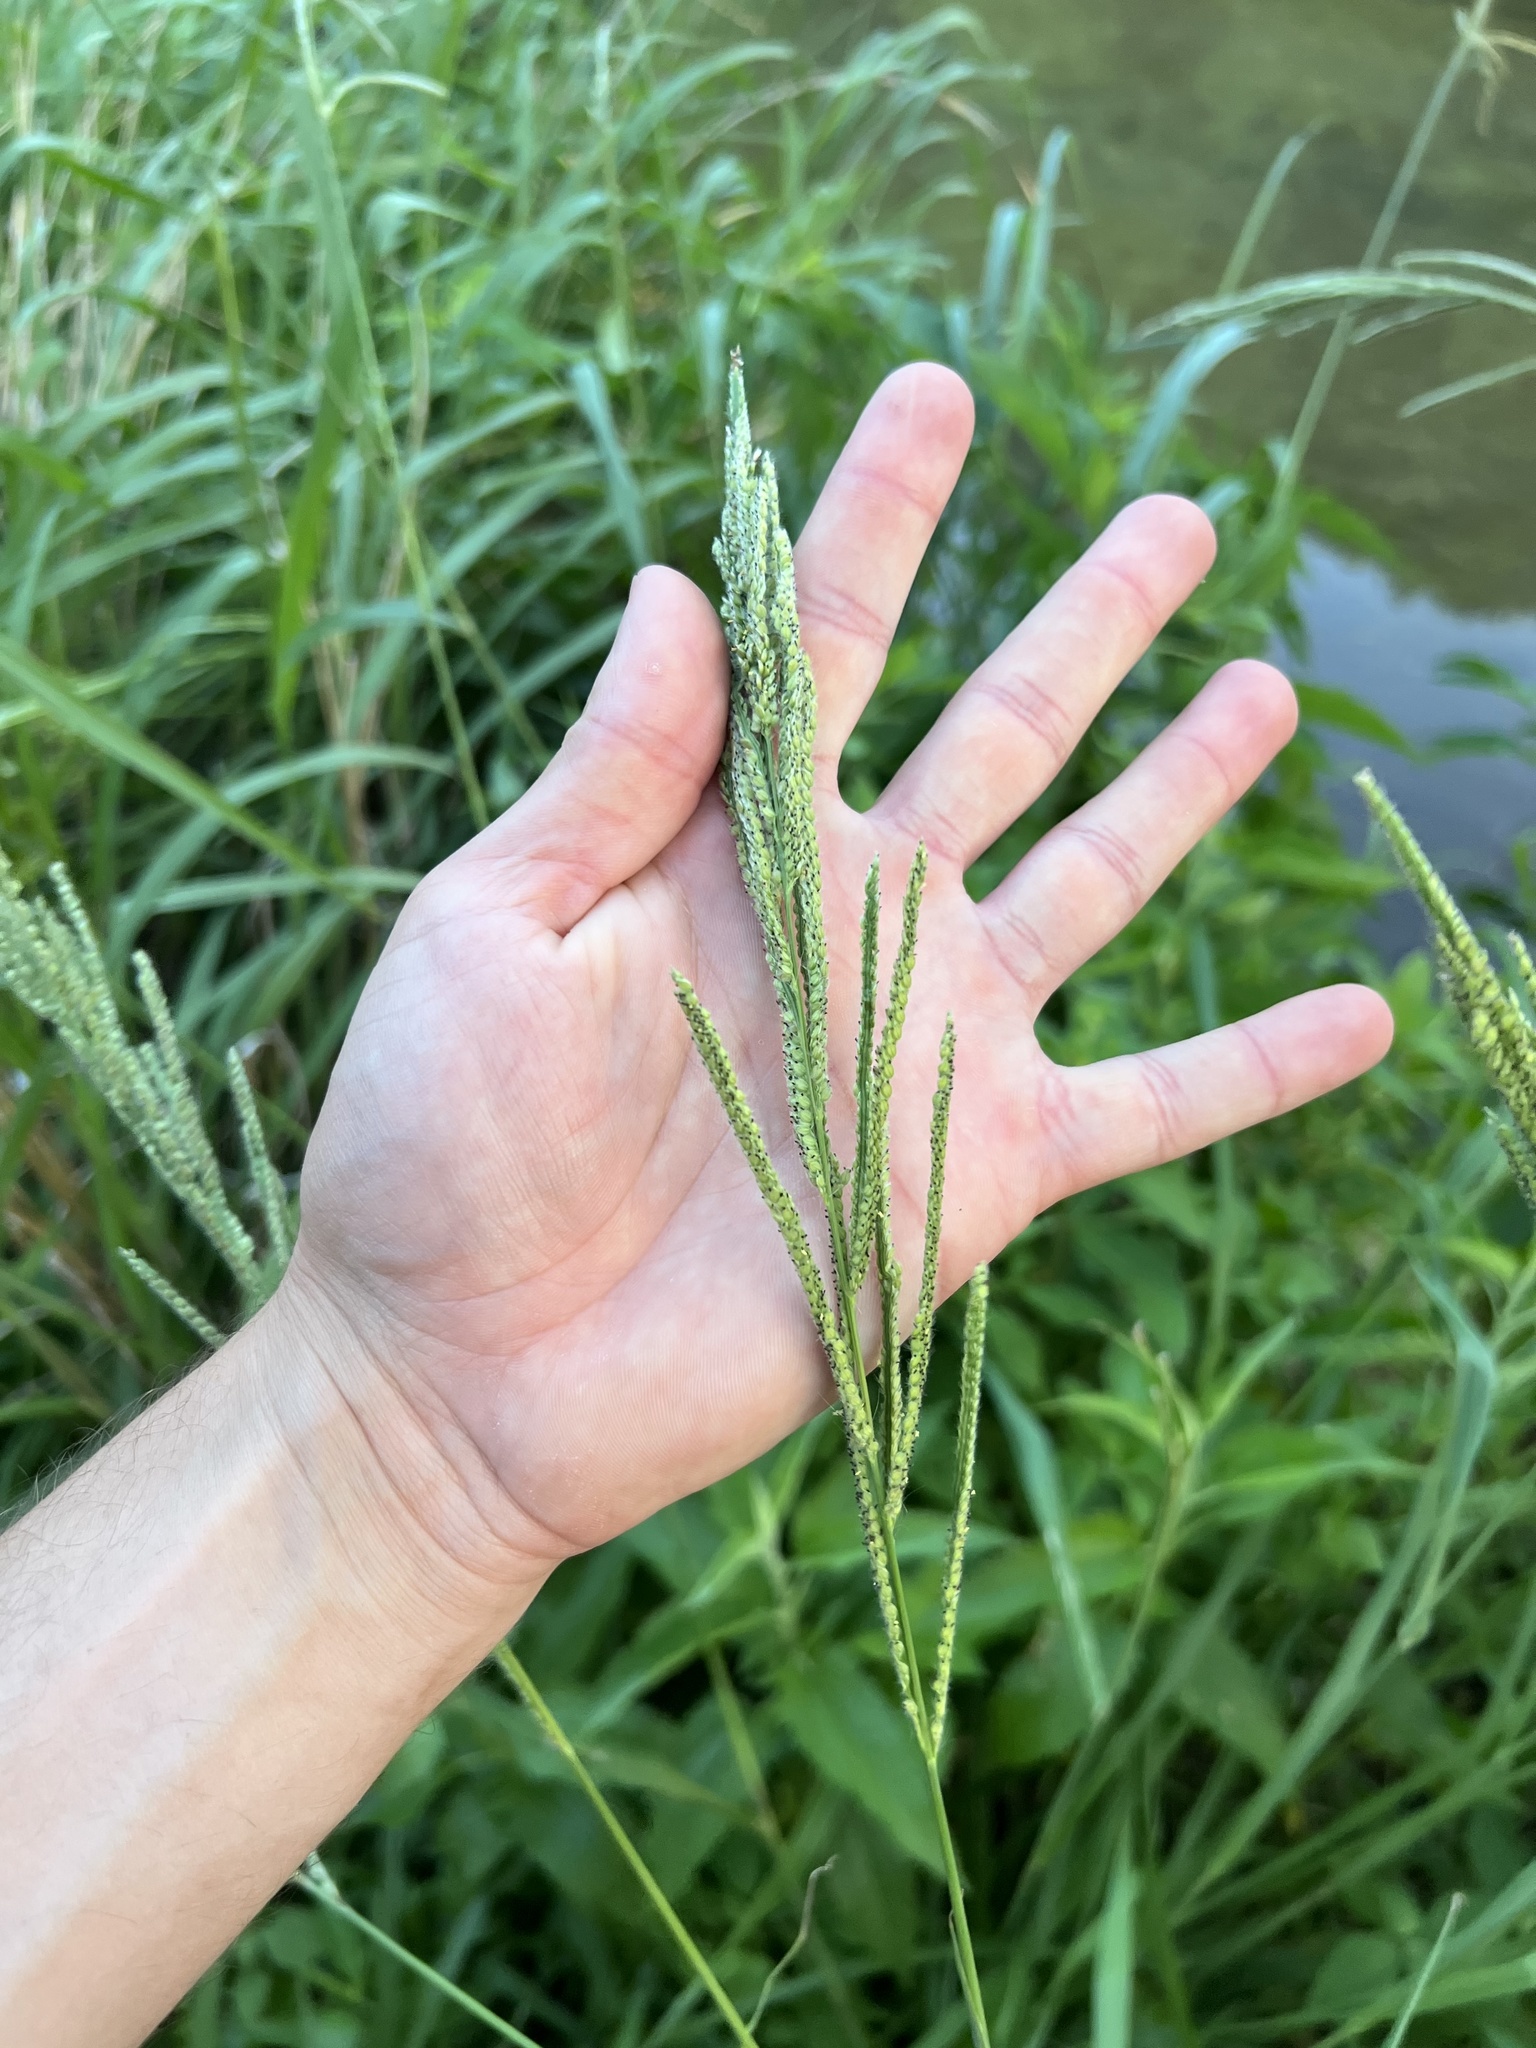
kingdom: Plantae
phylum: Tracheophyta
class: Liliopsida
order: Poales
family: Poaceae
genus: Paspalum
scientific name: Paspalum urvillei
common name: Vasey's grass
